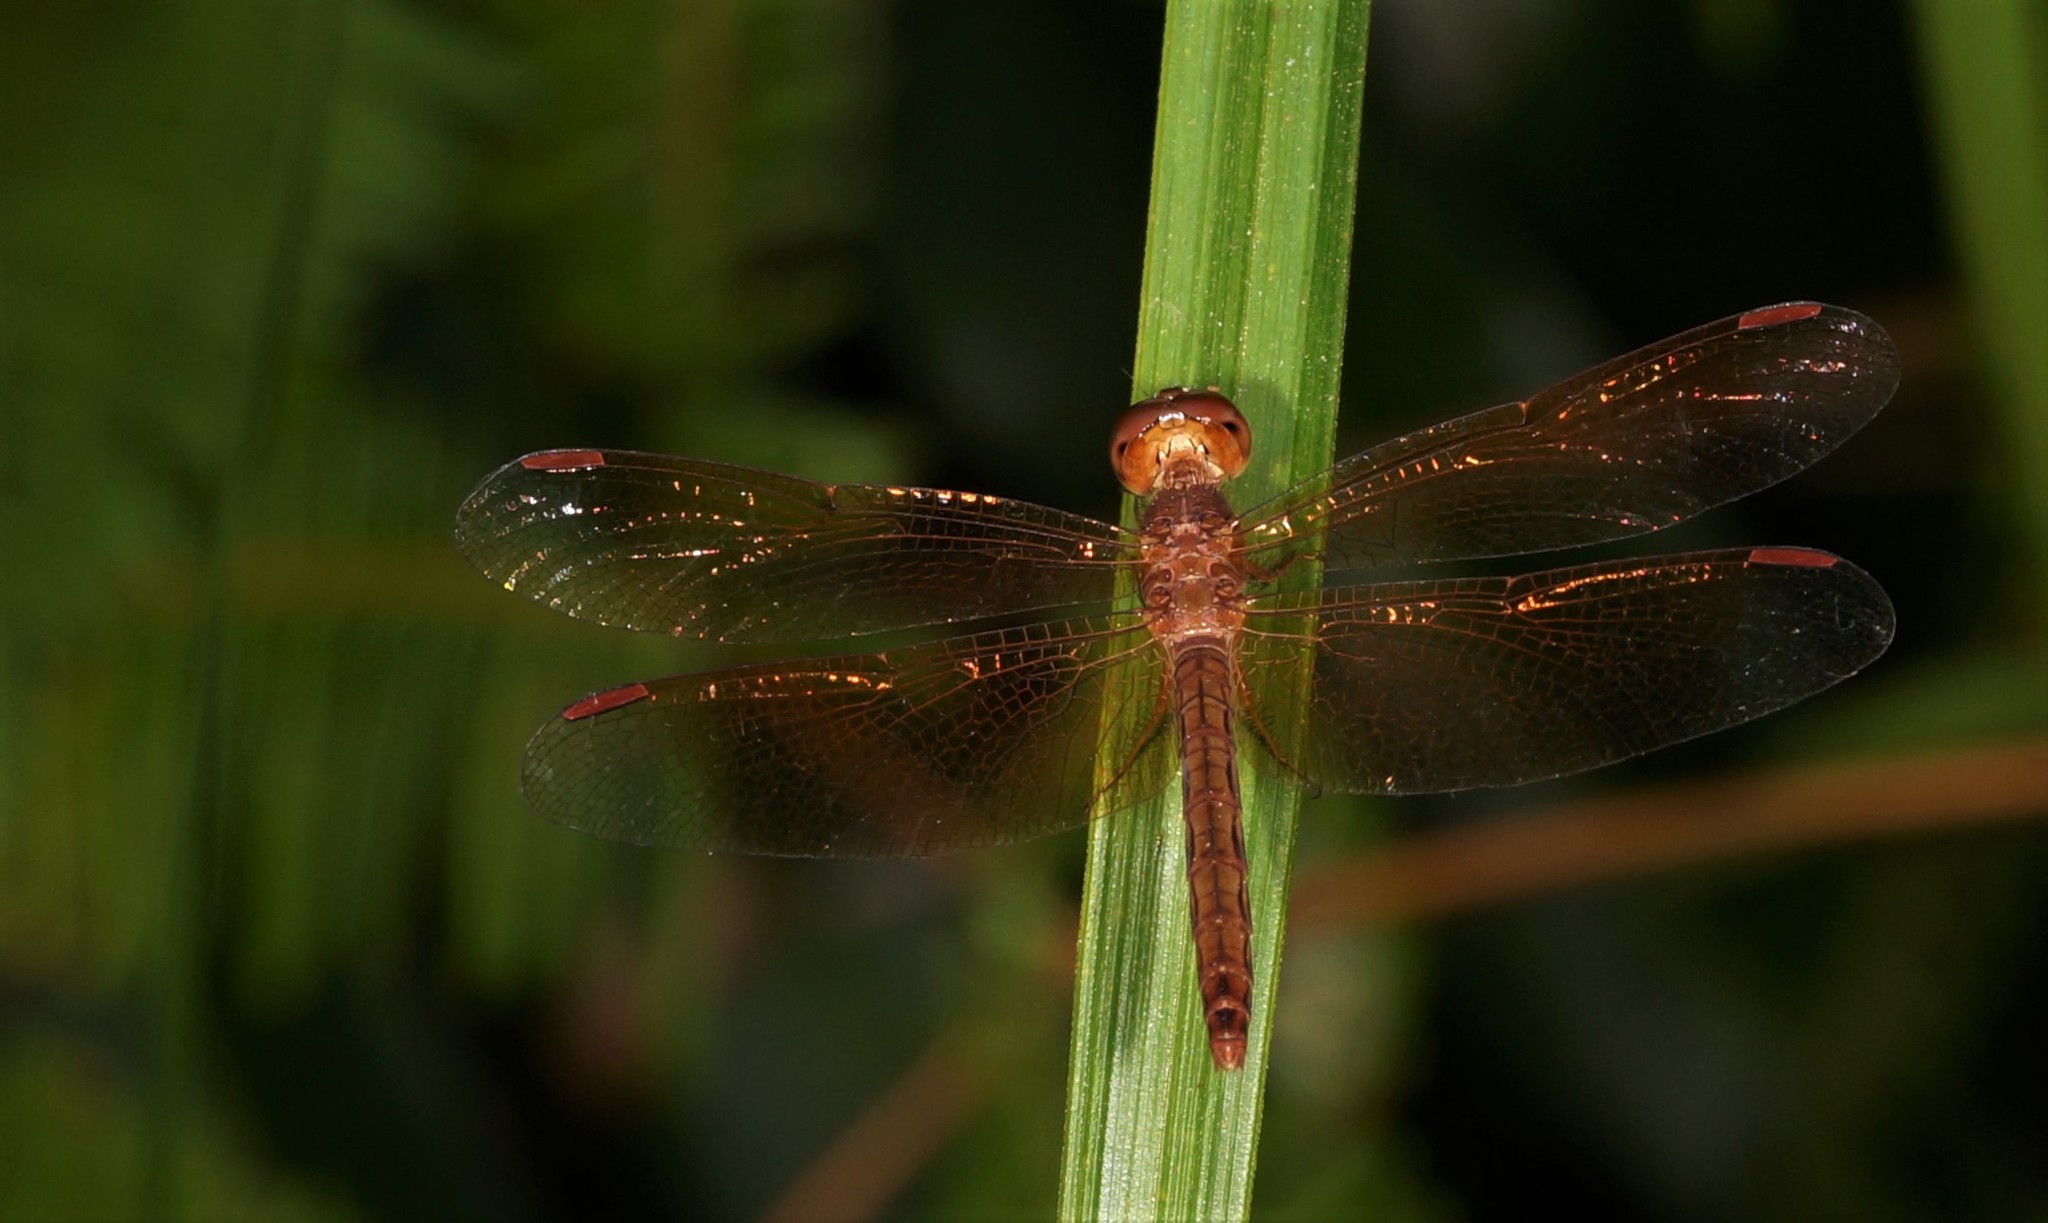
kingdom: Animalia
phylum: Arthropoda
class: Insecta
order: Odonata
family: Libellulidae
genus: Neurothemis
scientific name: Neurothemis fluctuans
